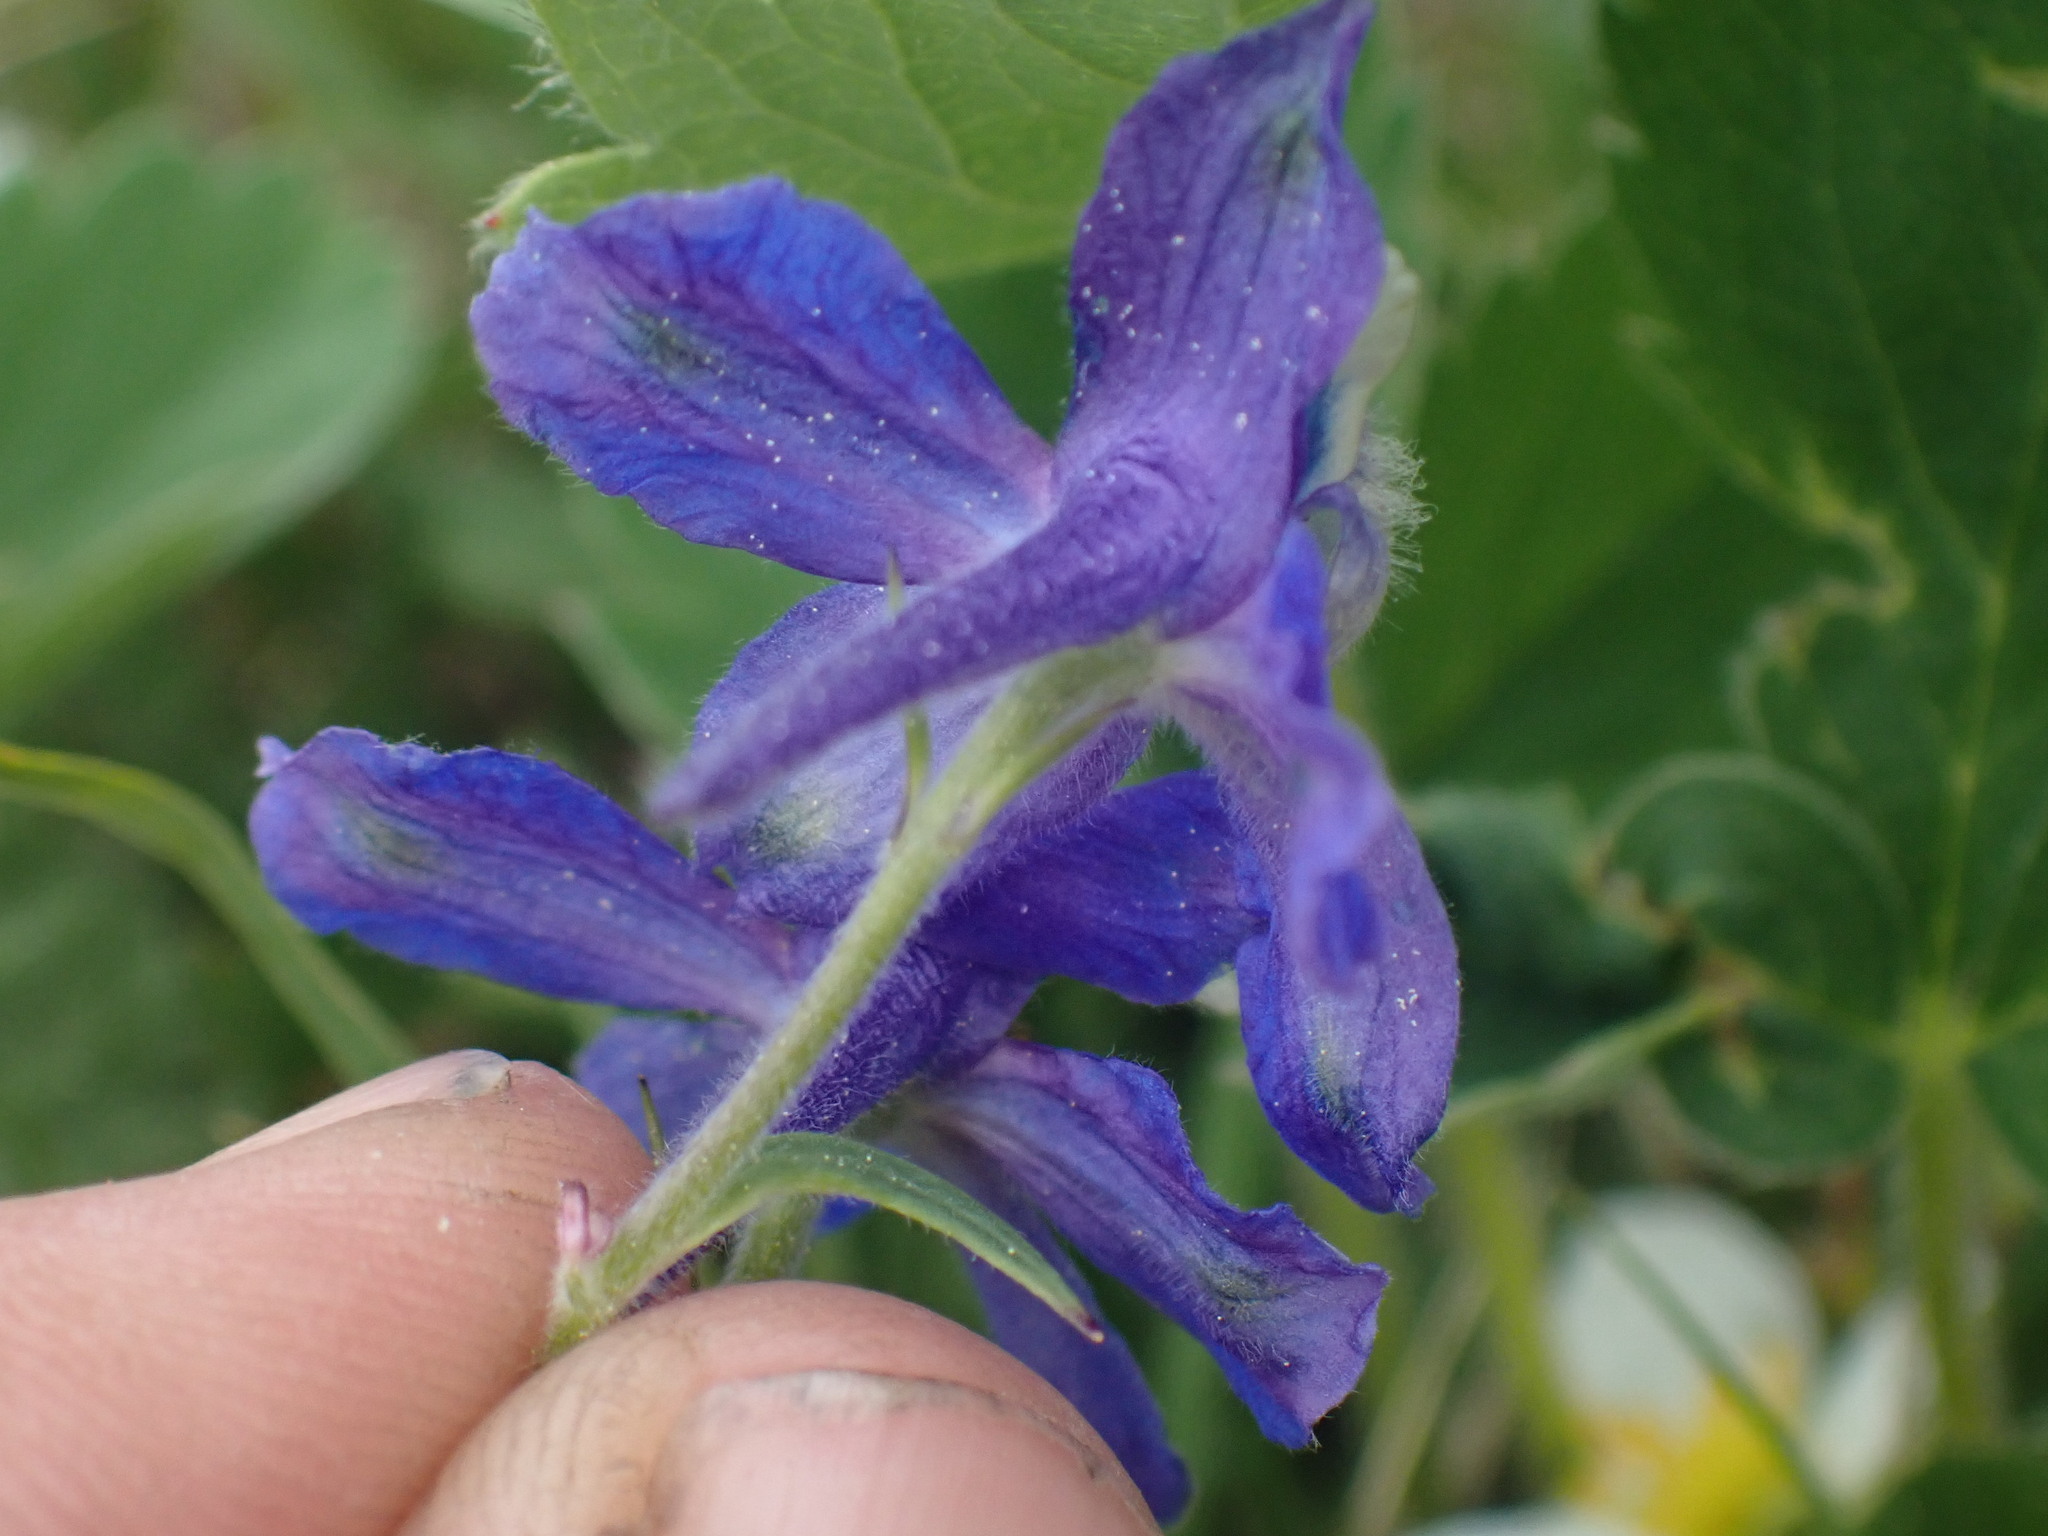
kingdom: Plantae
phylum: Tracheophyta
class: Magnoliopsida
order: Ranunculales
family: Ranunculaceae
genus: Delphinium
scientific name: Delphinium sutherlandii
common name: Sutherland's larkspur
